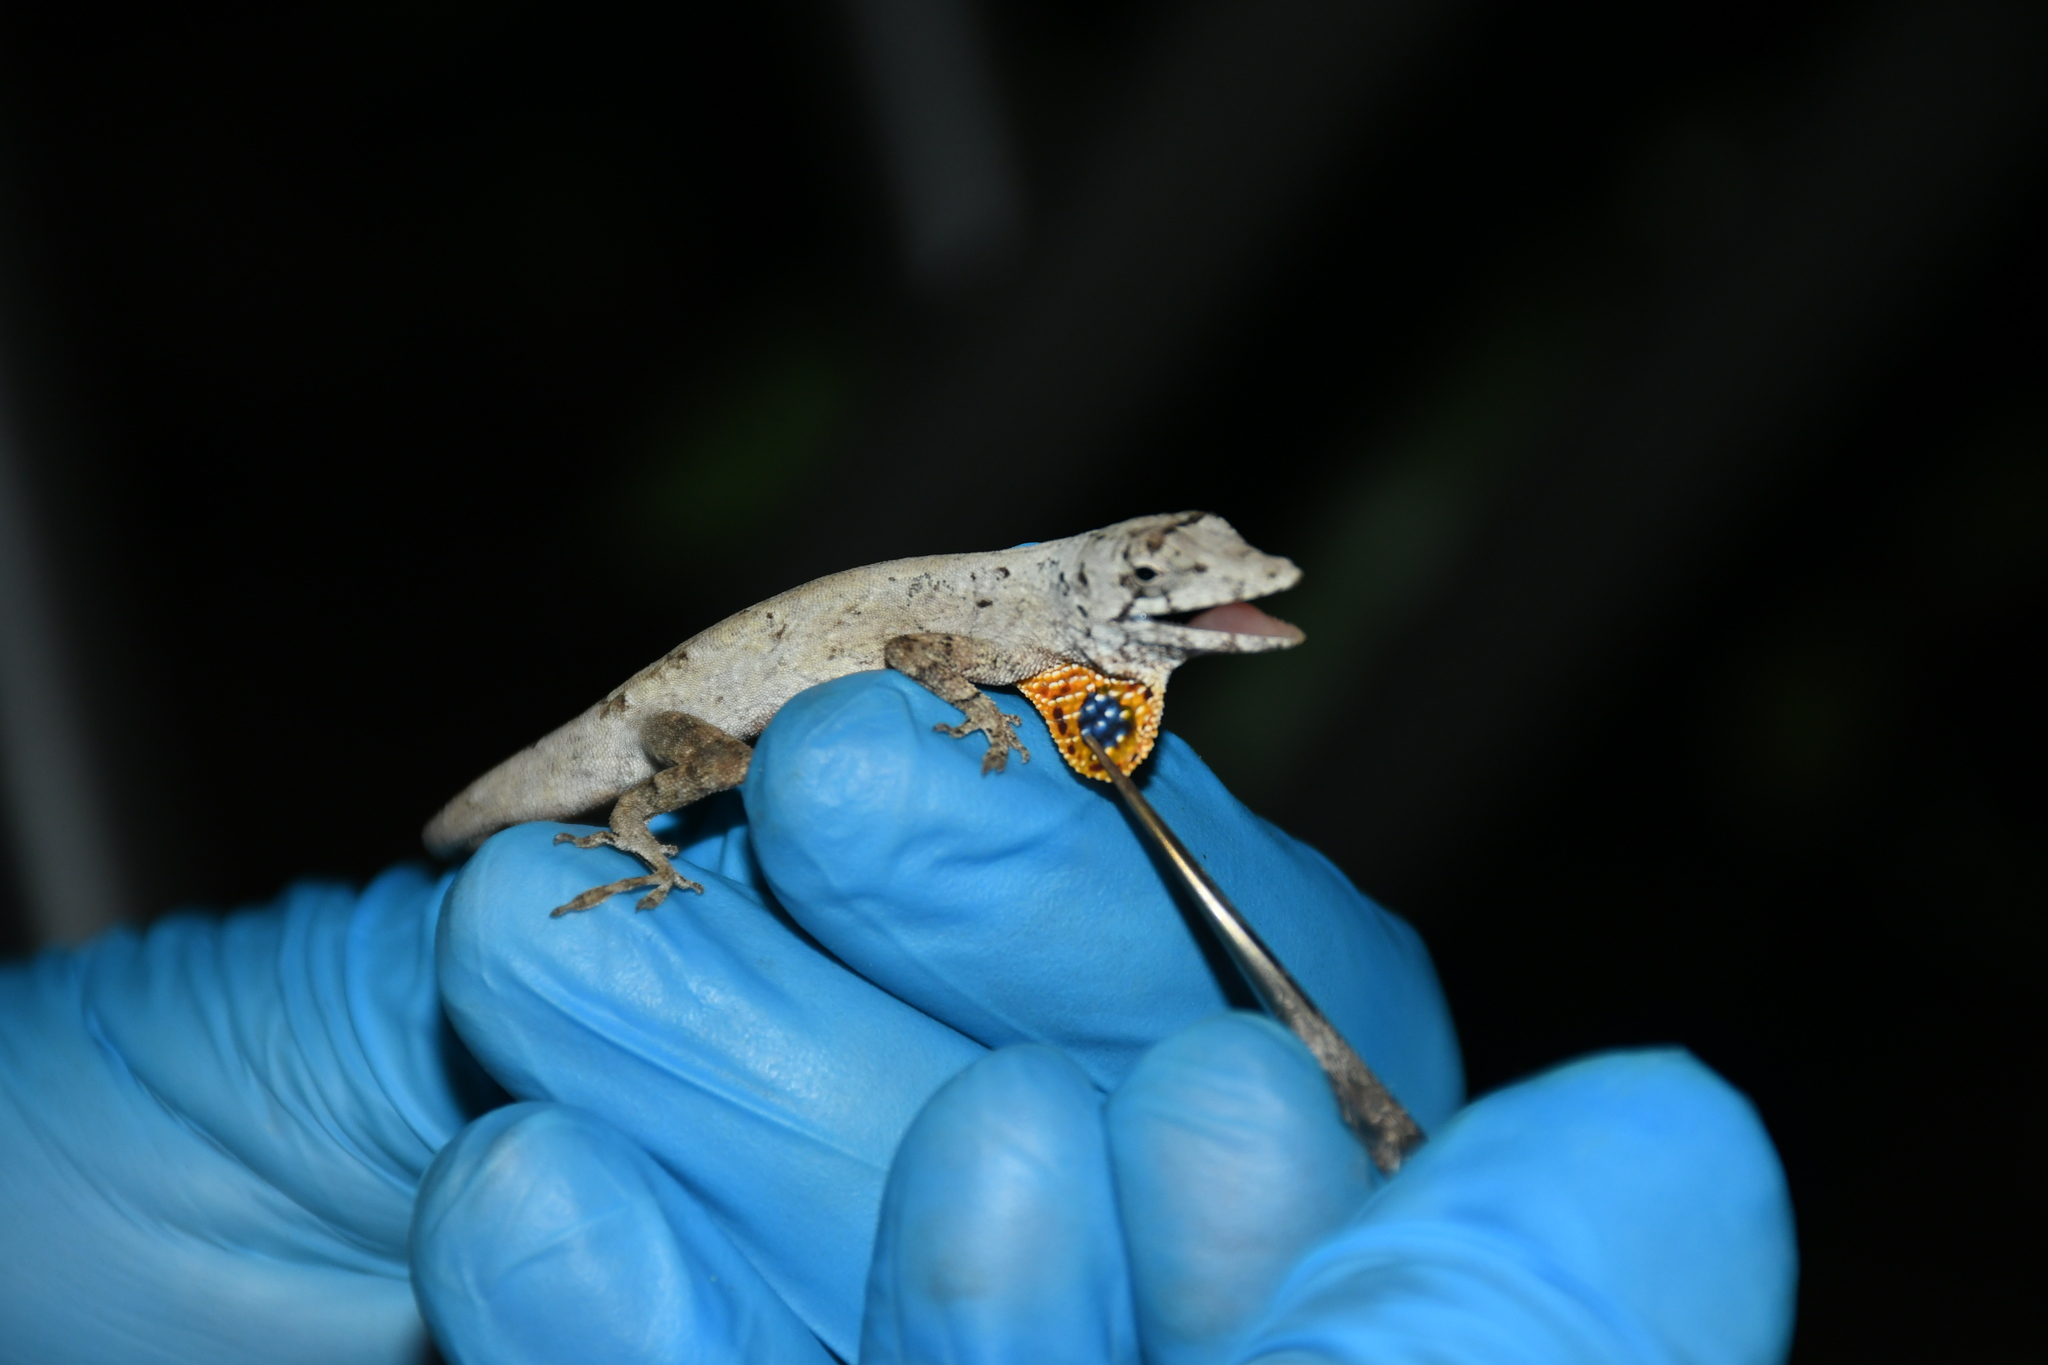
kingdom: Animalia
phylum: Chordata
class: Squamata
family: Dactyloidae
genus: Anolis
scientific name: Anolis ustus
